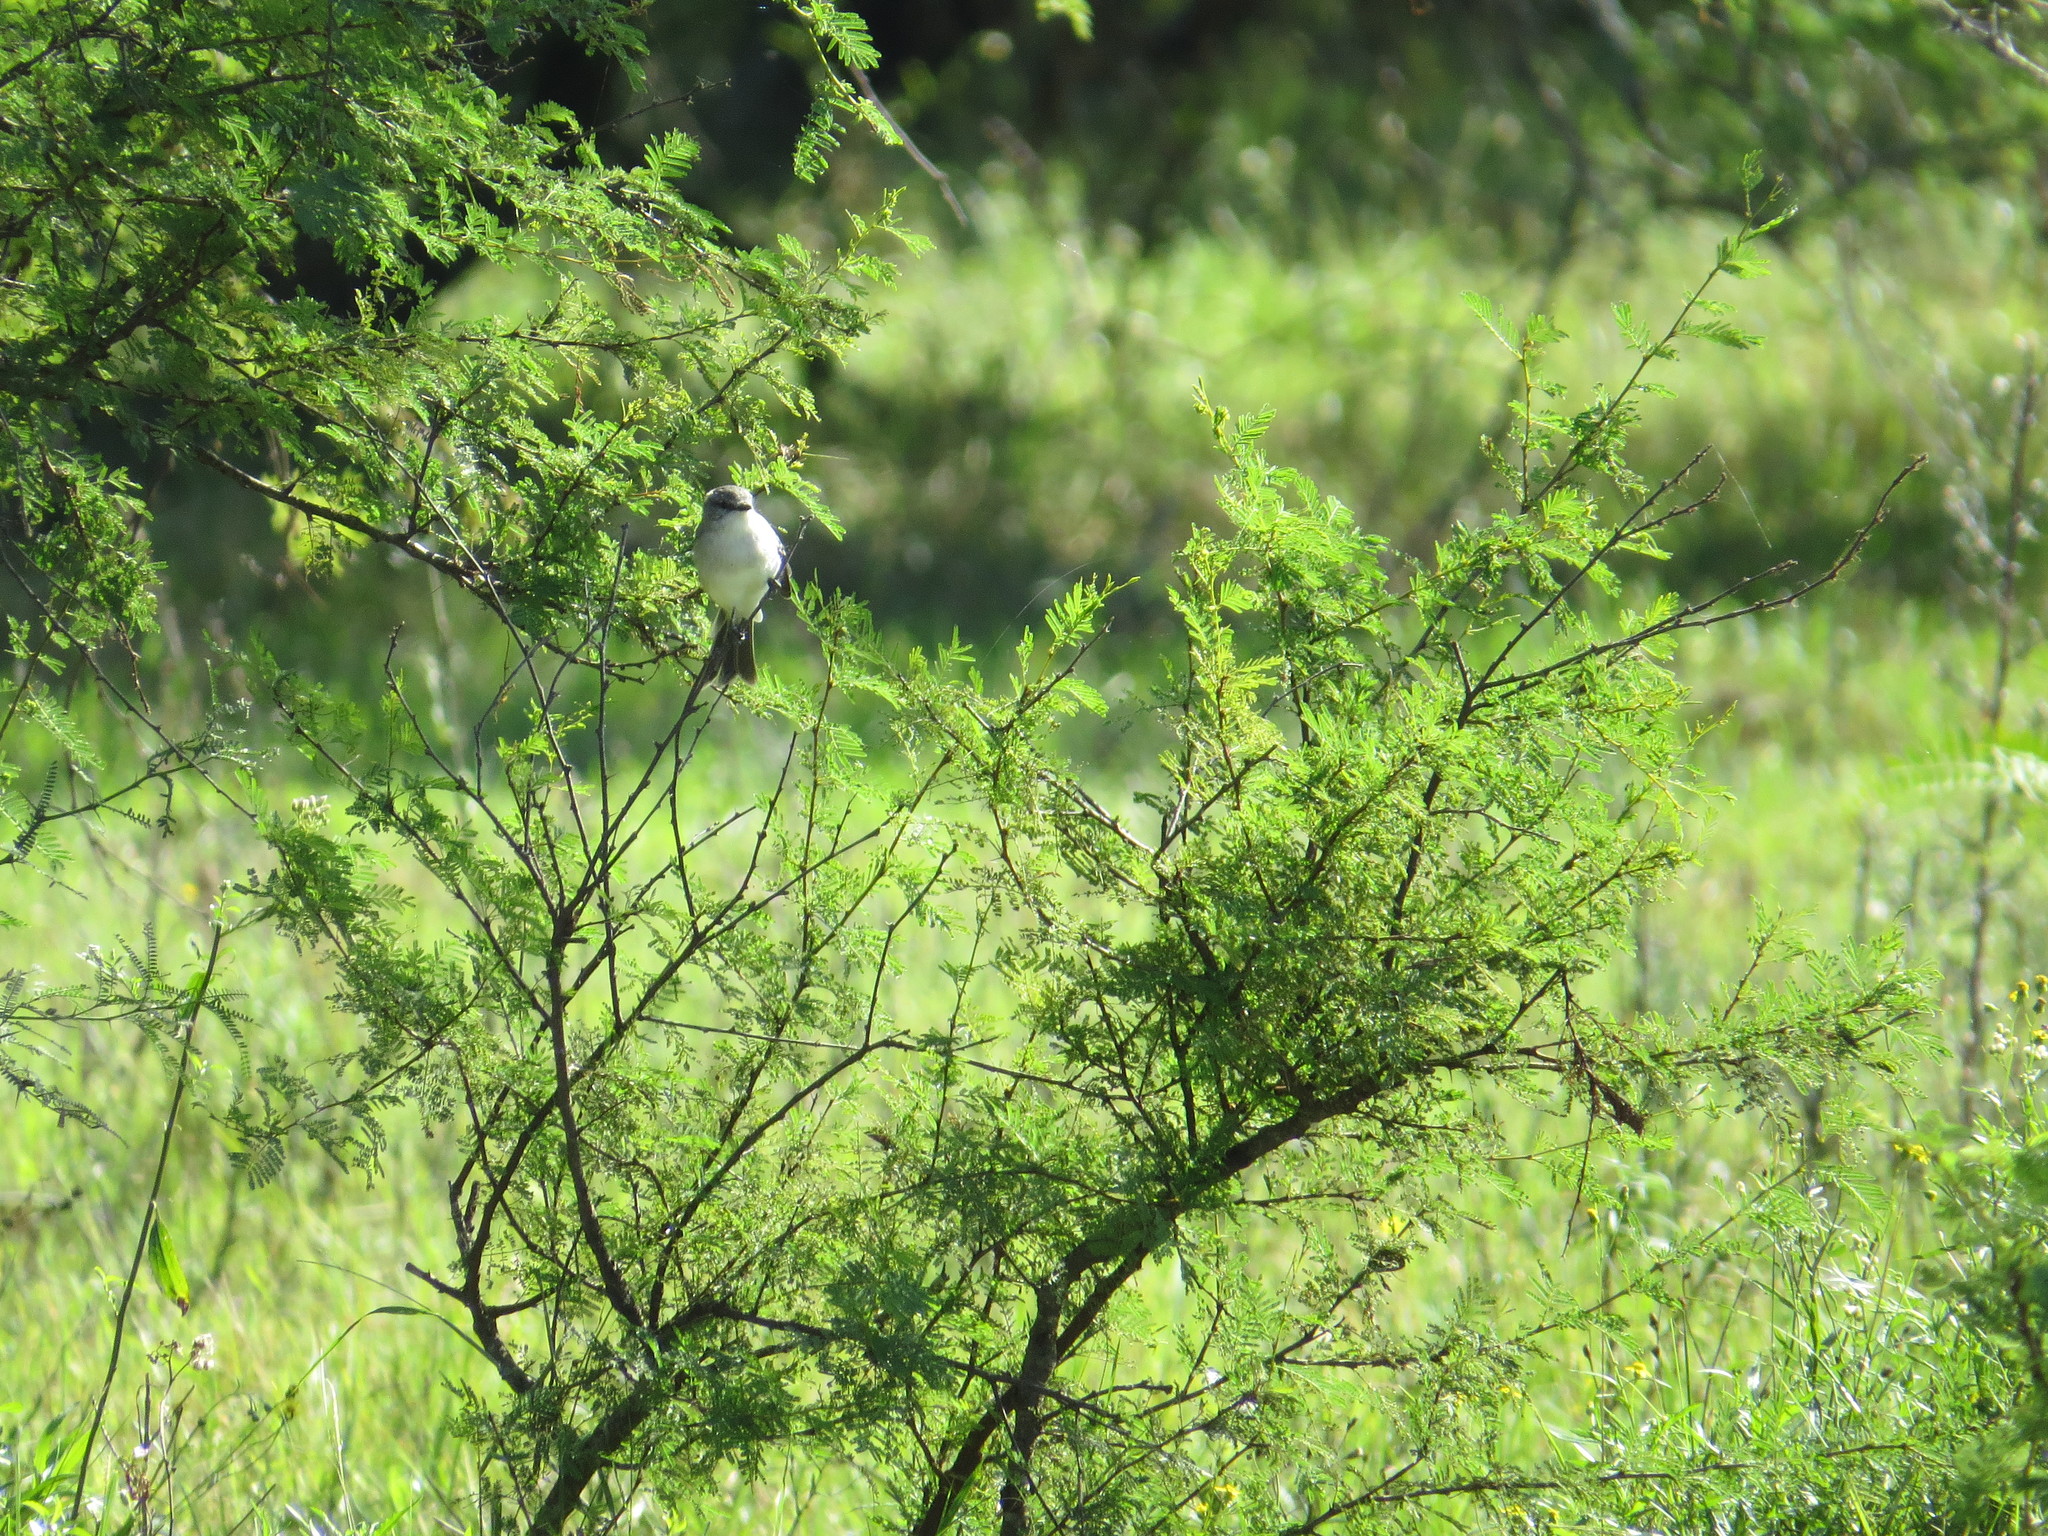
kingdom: Animalia
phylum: Chordata
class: Aves
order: Passeriformes
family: Tyrannidae
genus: Suiriri
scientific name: Suiriri suiriri
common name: Suiriri flycatcher
